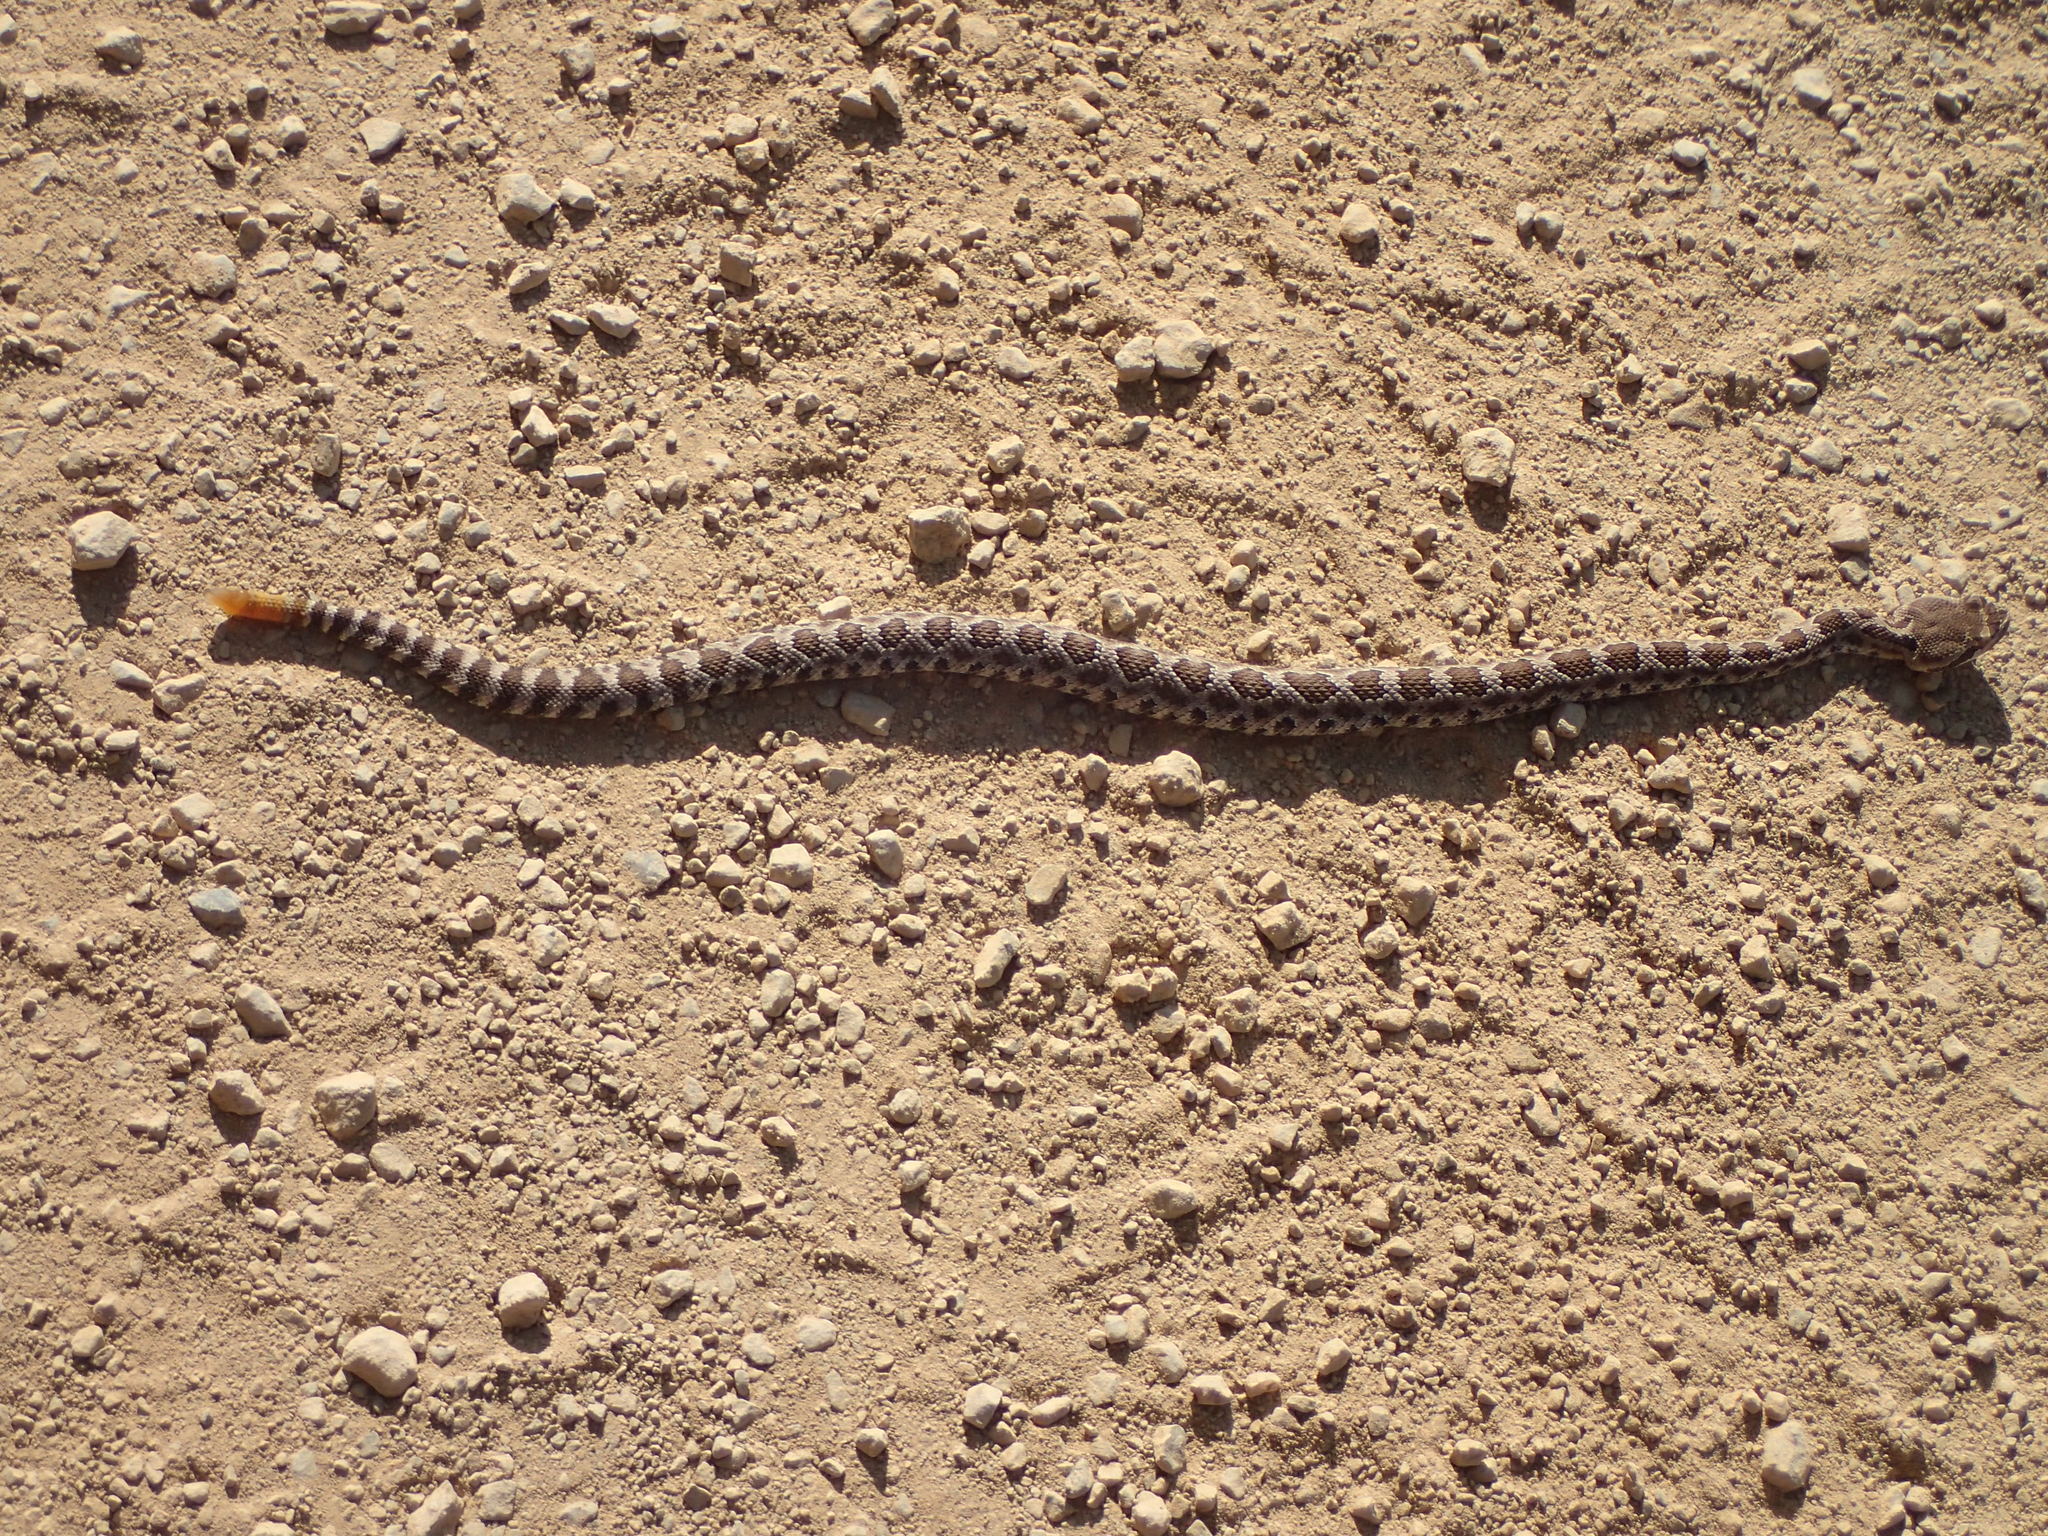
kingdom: Animalia
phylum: Chordata
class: Squamata
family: Viperidae
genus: Crotalus
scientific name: Crotalus oreganus
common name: Abyssus
